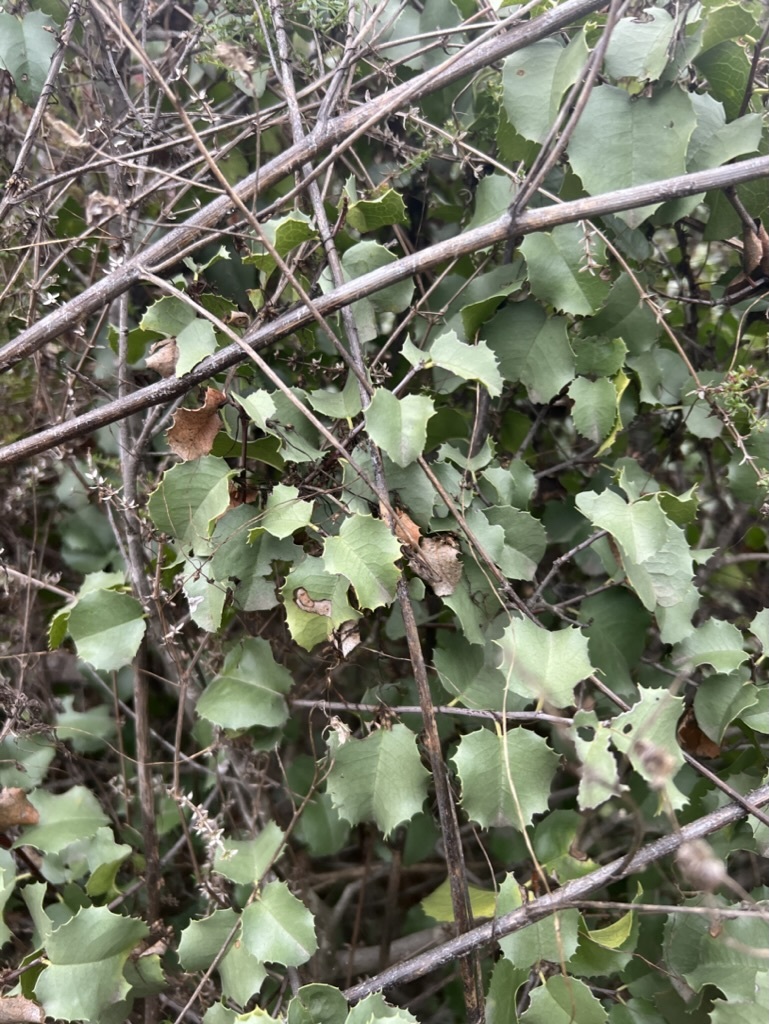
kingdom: Plantae
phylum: Tracheophyta
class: Magnoliopsida
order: Rosales
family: Rosaceae
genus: Prunus
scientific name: Prunus ilicifolia
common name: Hollyleaf cherry
